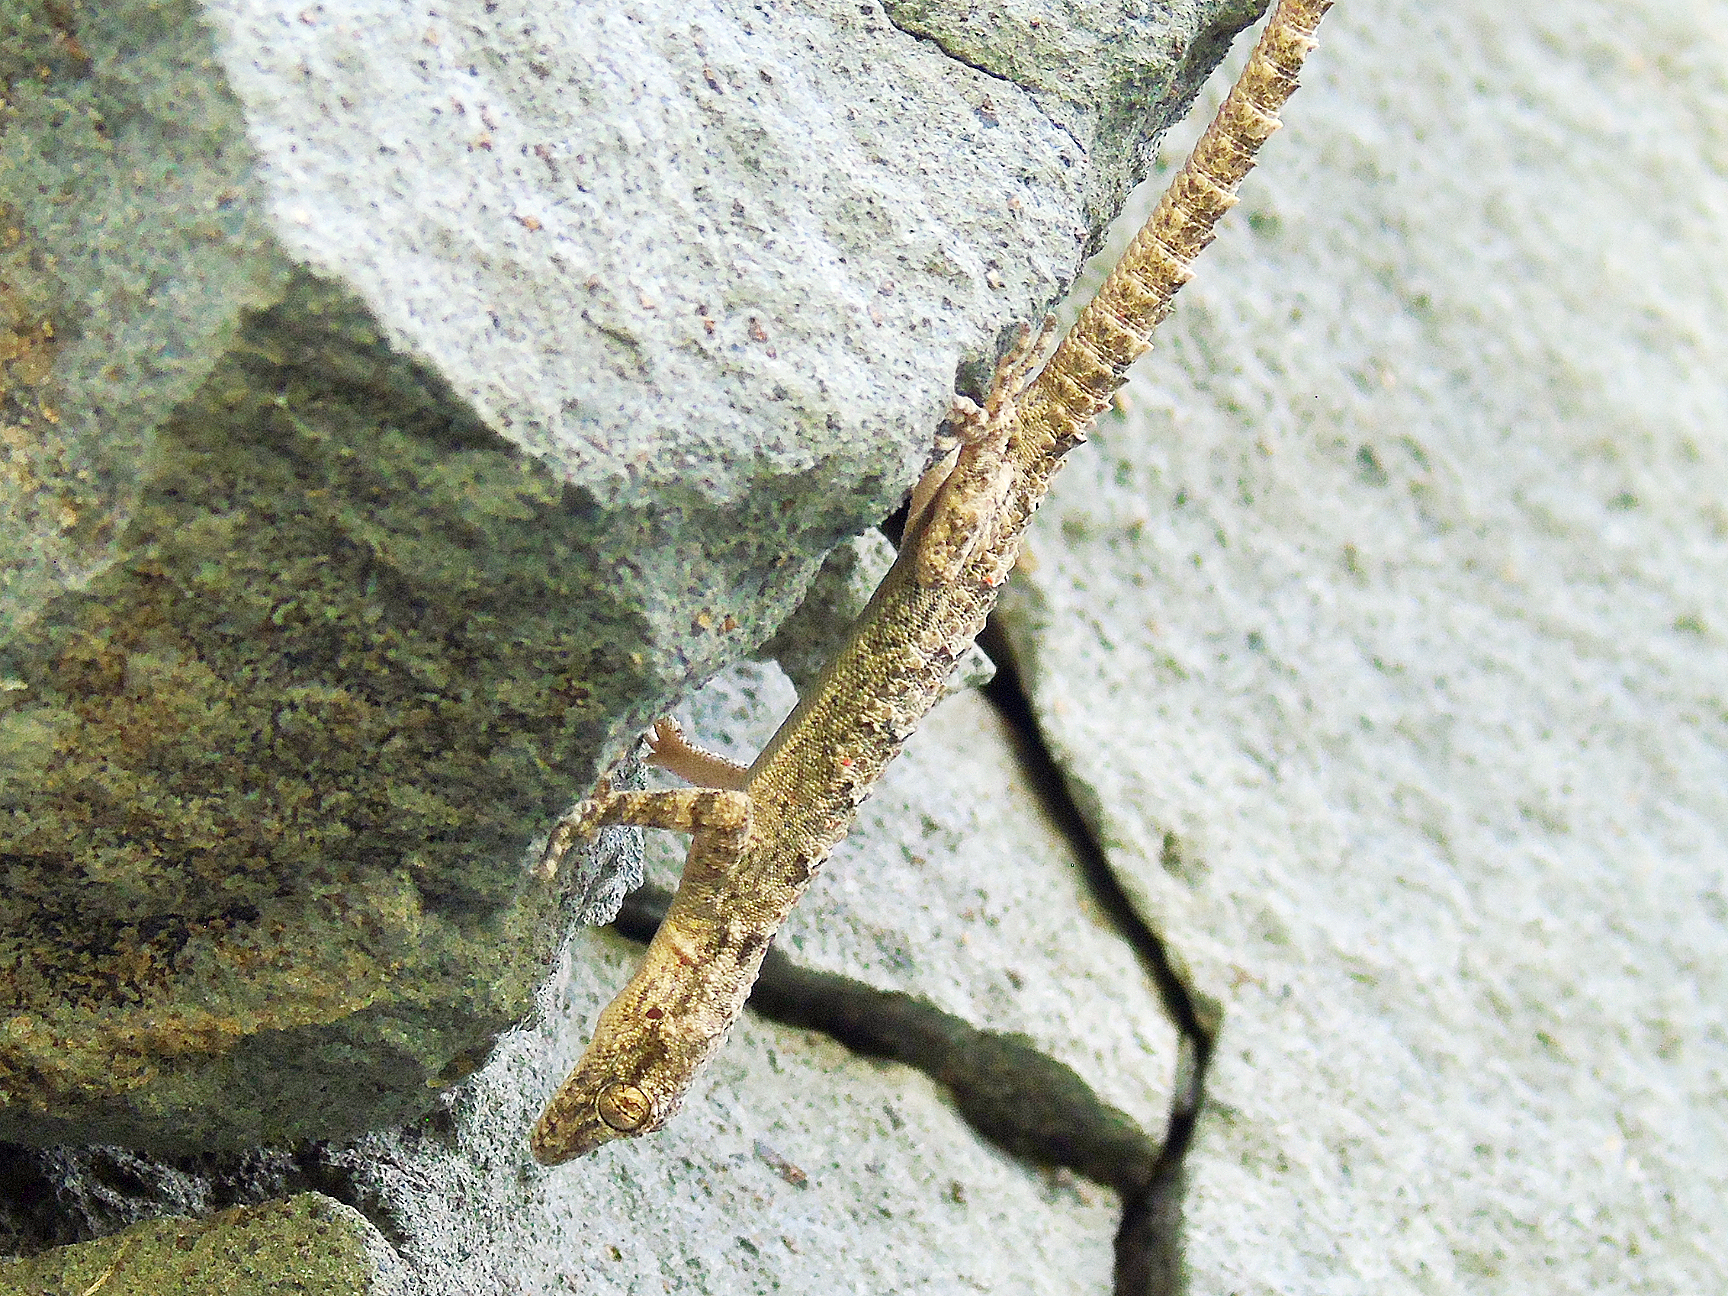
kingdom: Animalia
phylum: Chordata
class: Squamata
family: Gekkonidae
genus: Mediodactylus
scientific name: Mediodactylus heterocercus
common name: Asia minor thin-toed gecko
